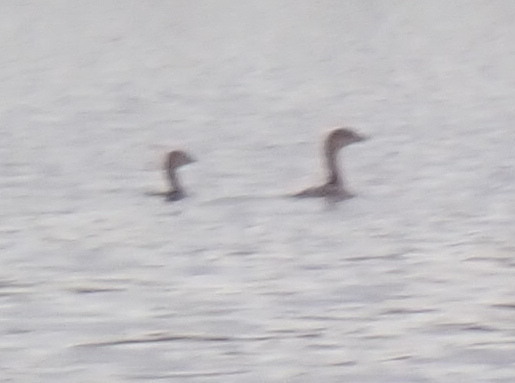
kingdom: Animalia
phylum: Chordata
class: Aves
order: Podicipediformes
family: Podicipedidae
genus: Podilymbus
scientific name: Podilymbus podiceps
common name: Pied-billed grebe
